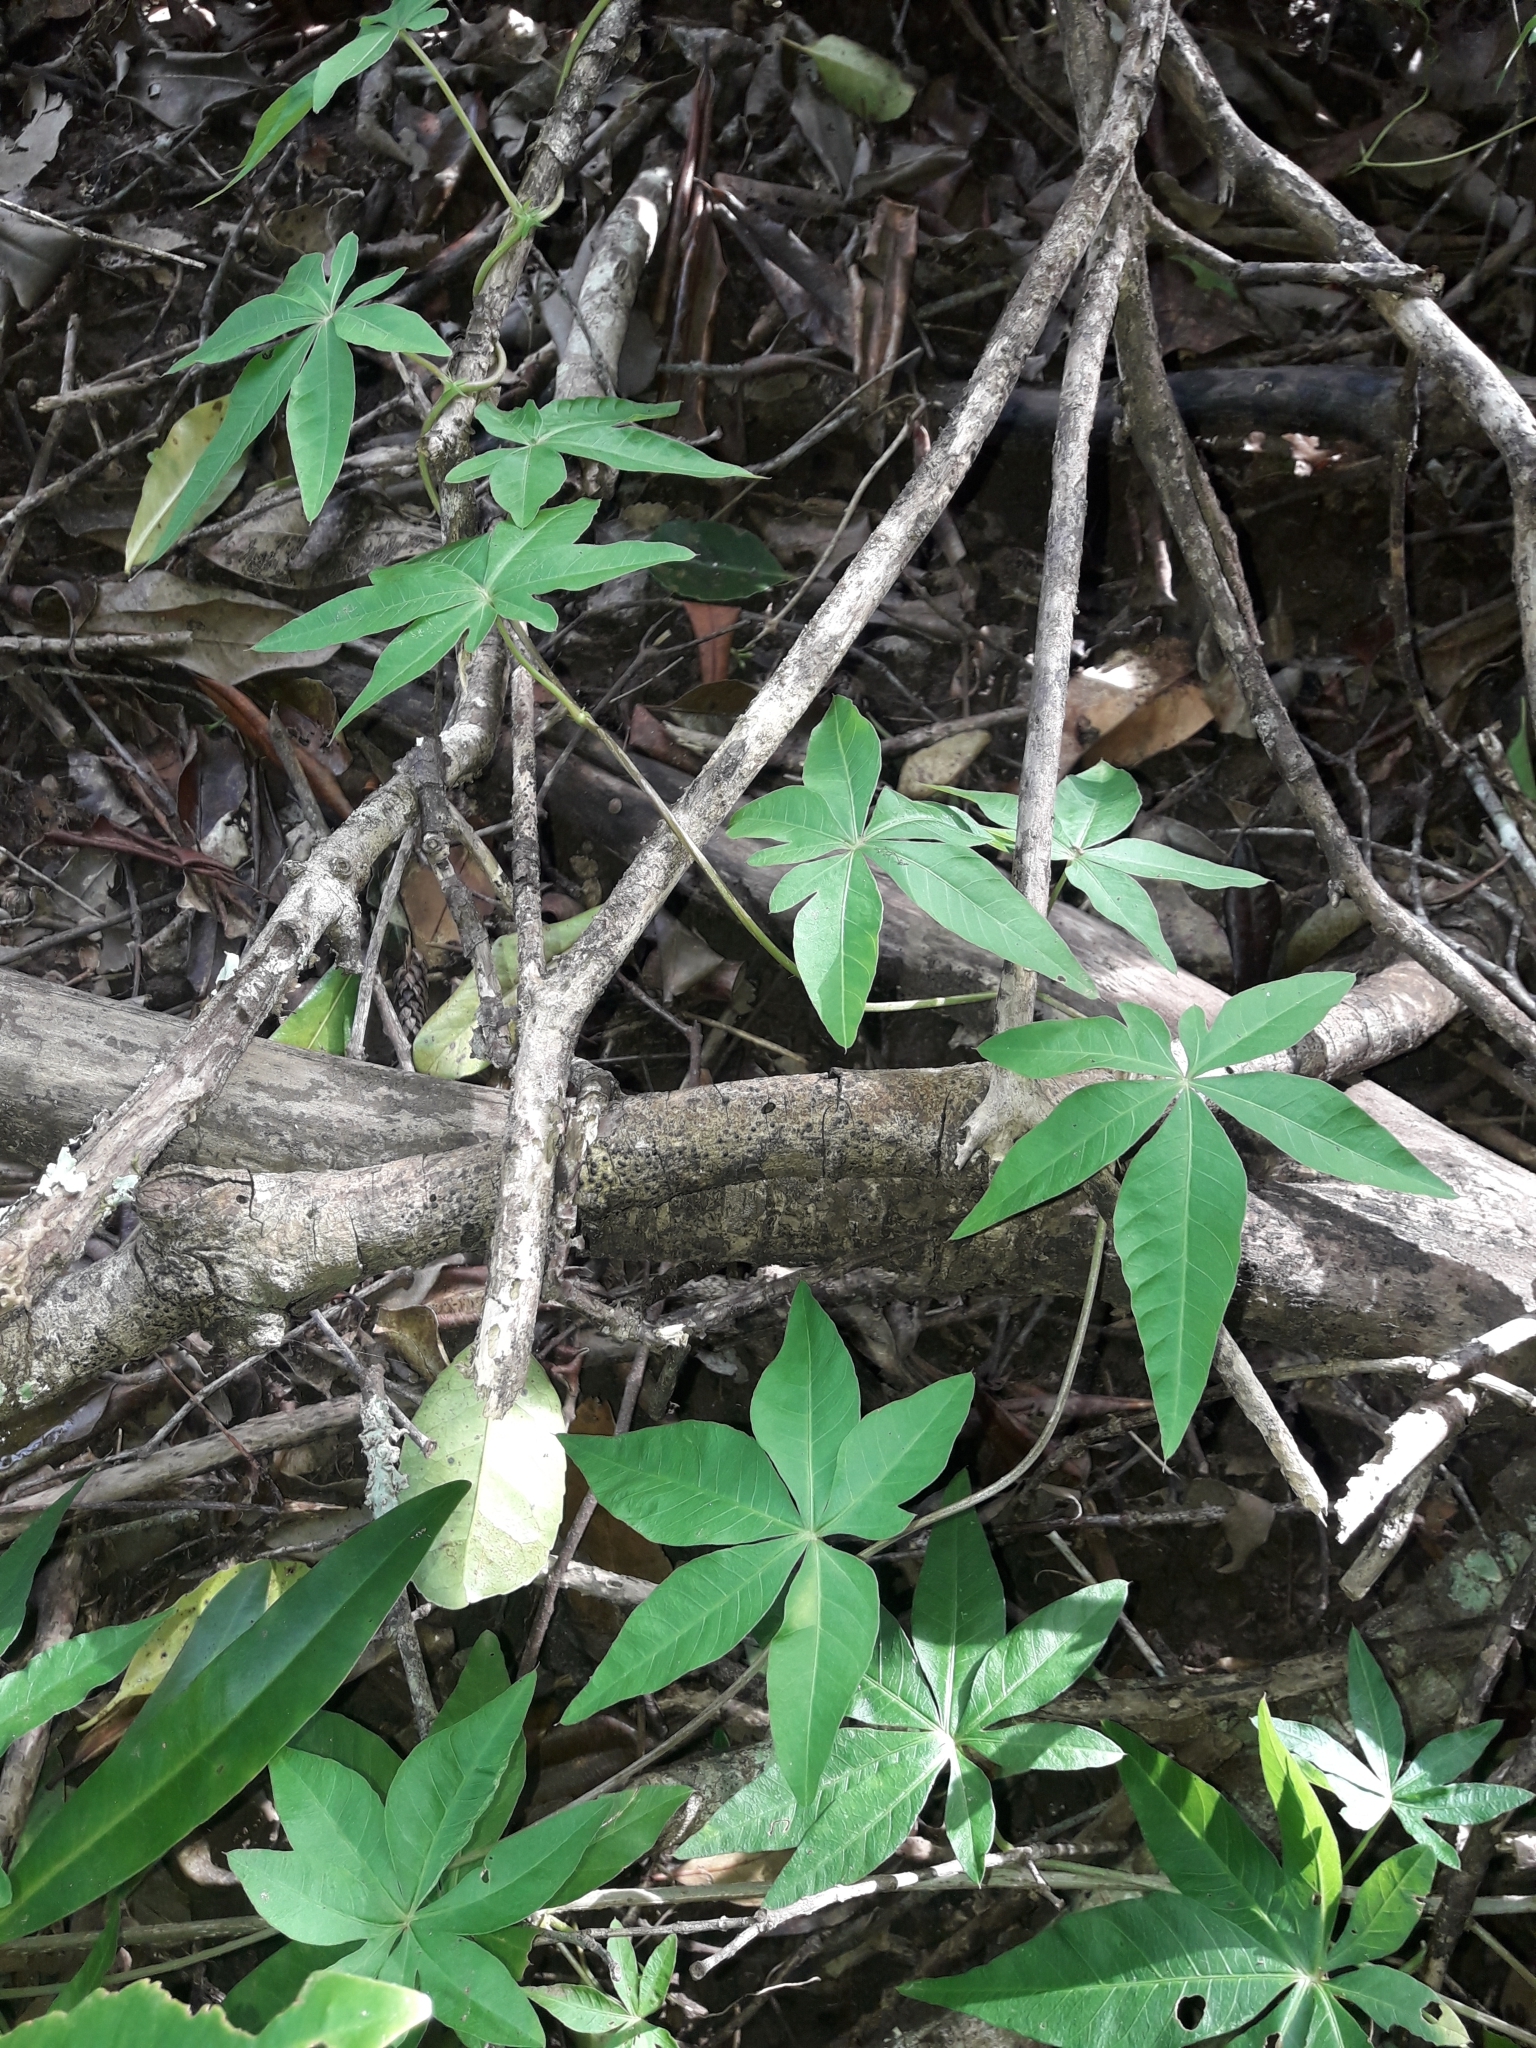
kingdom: Plantae
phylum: Tracheophyta
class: Magnoliopsida
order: Solanales
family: Convolvulaceae
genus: Ipomoea
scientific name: Ipomoea cairica
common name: Mile a minute vine
